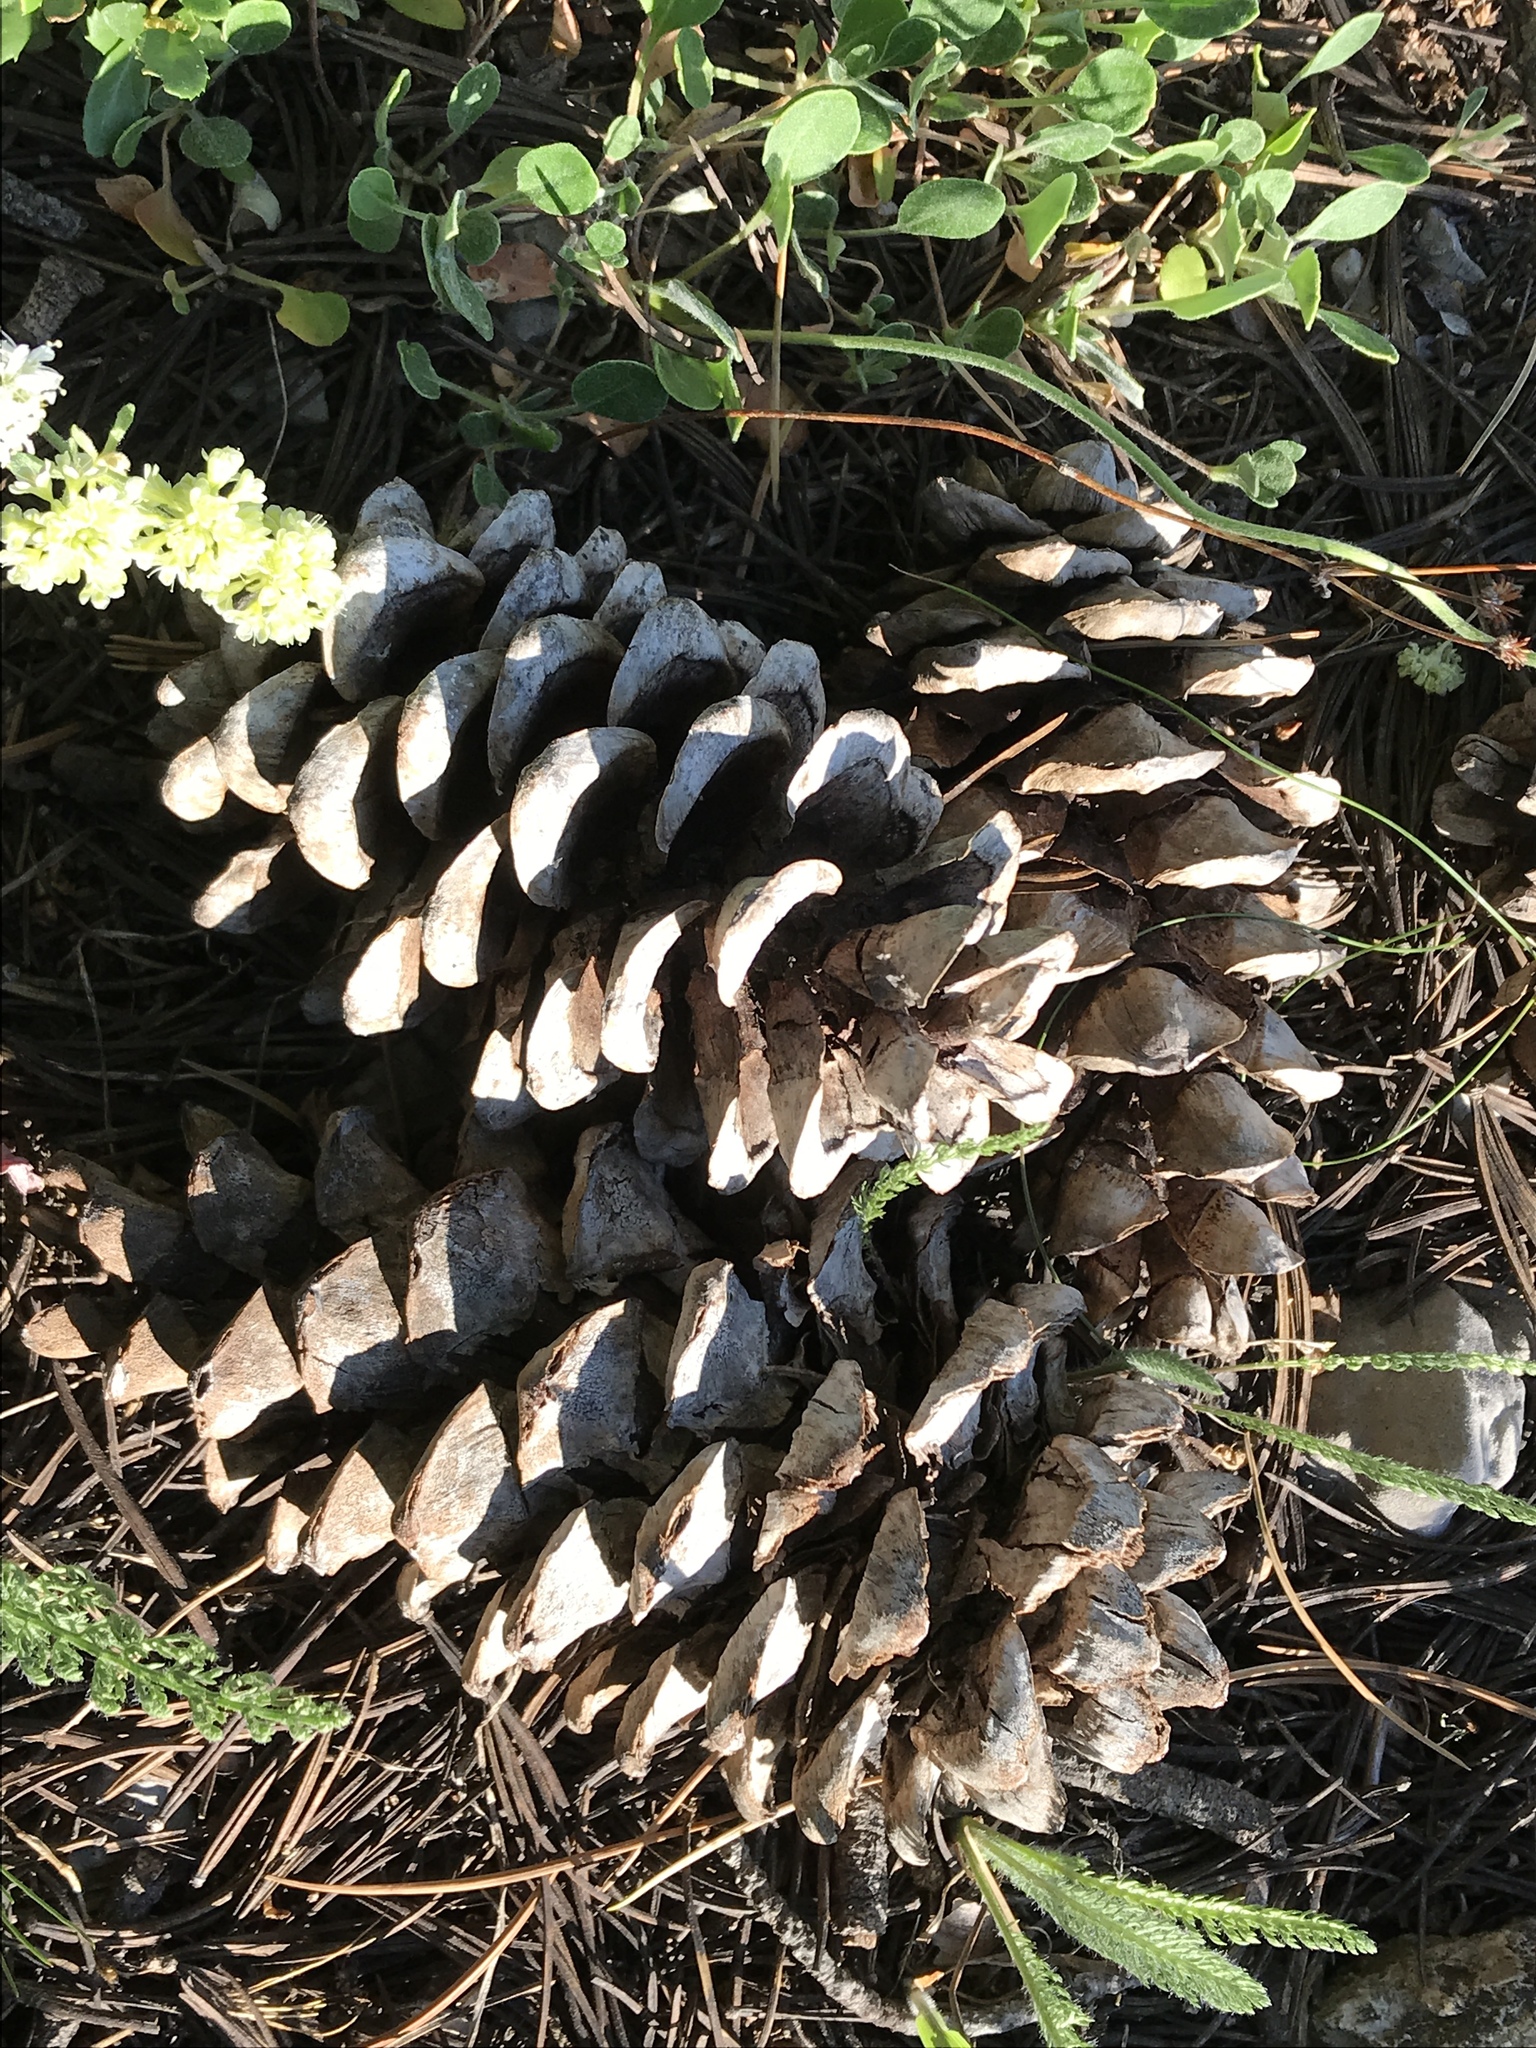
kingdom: Plantae
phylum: Tracheophyta
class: Pinopsida
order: Pinales
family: Pinaceae
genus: Pinus
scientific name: Pinus flexilis
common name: Limber pine
